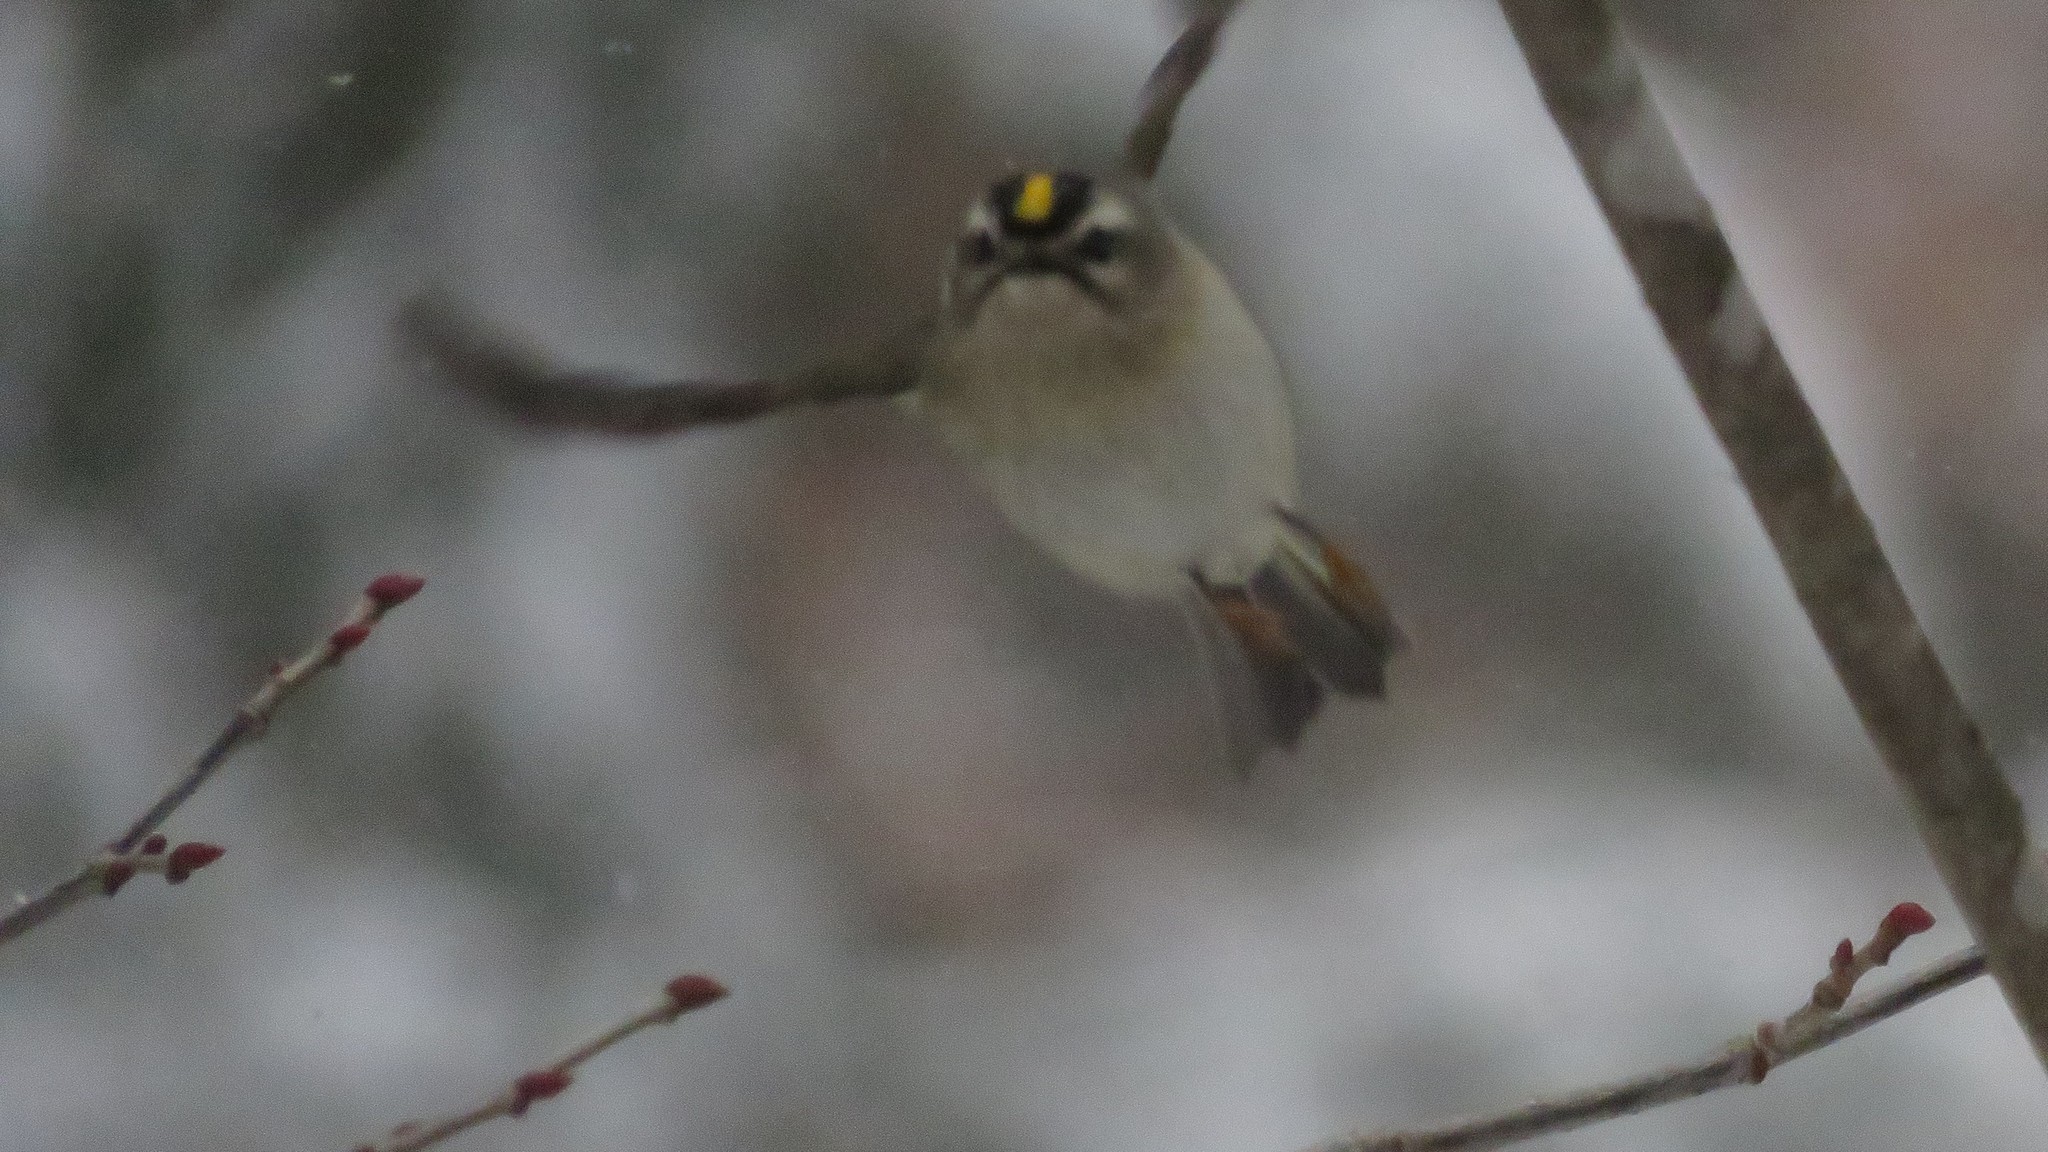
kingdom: Animalia
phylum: Chordata
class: Aves
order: Passeriformes
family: Regulidae
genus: Regulus
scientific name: Regulus satrapa
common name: Golden-crowned kinglet
